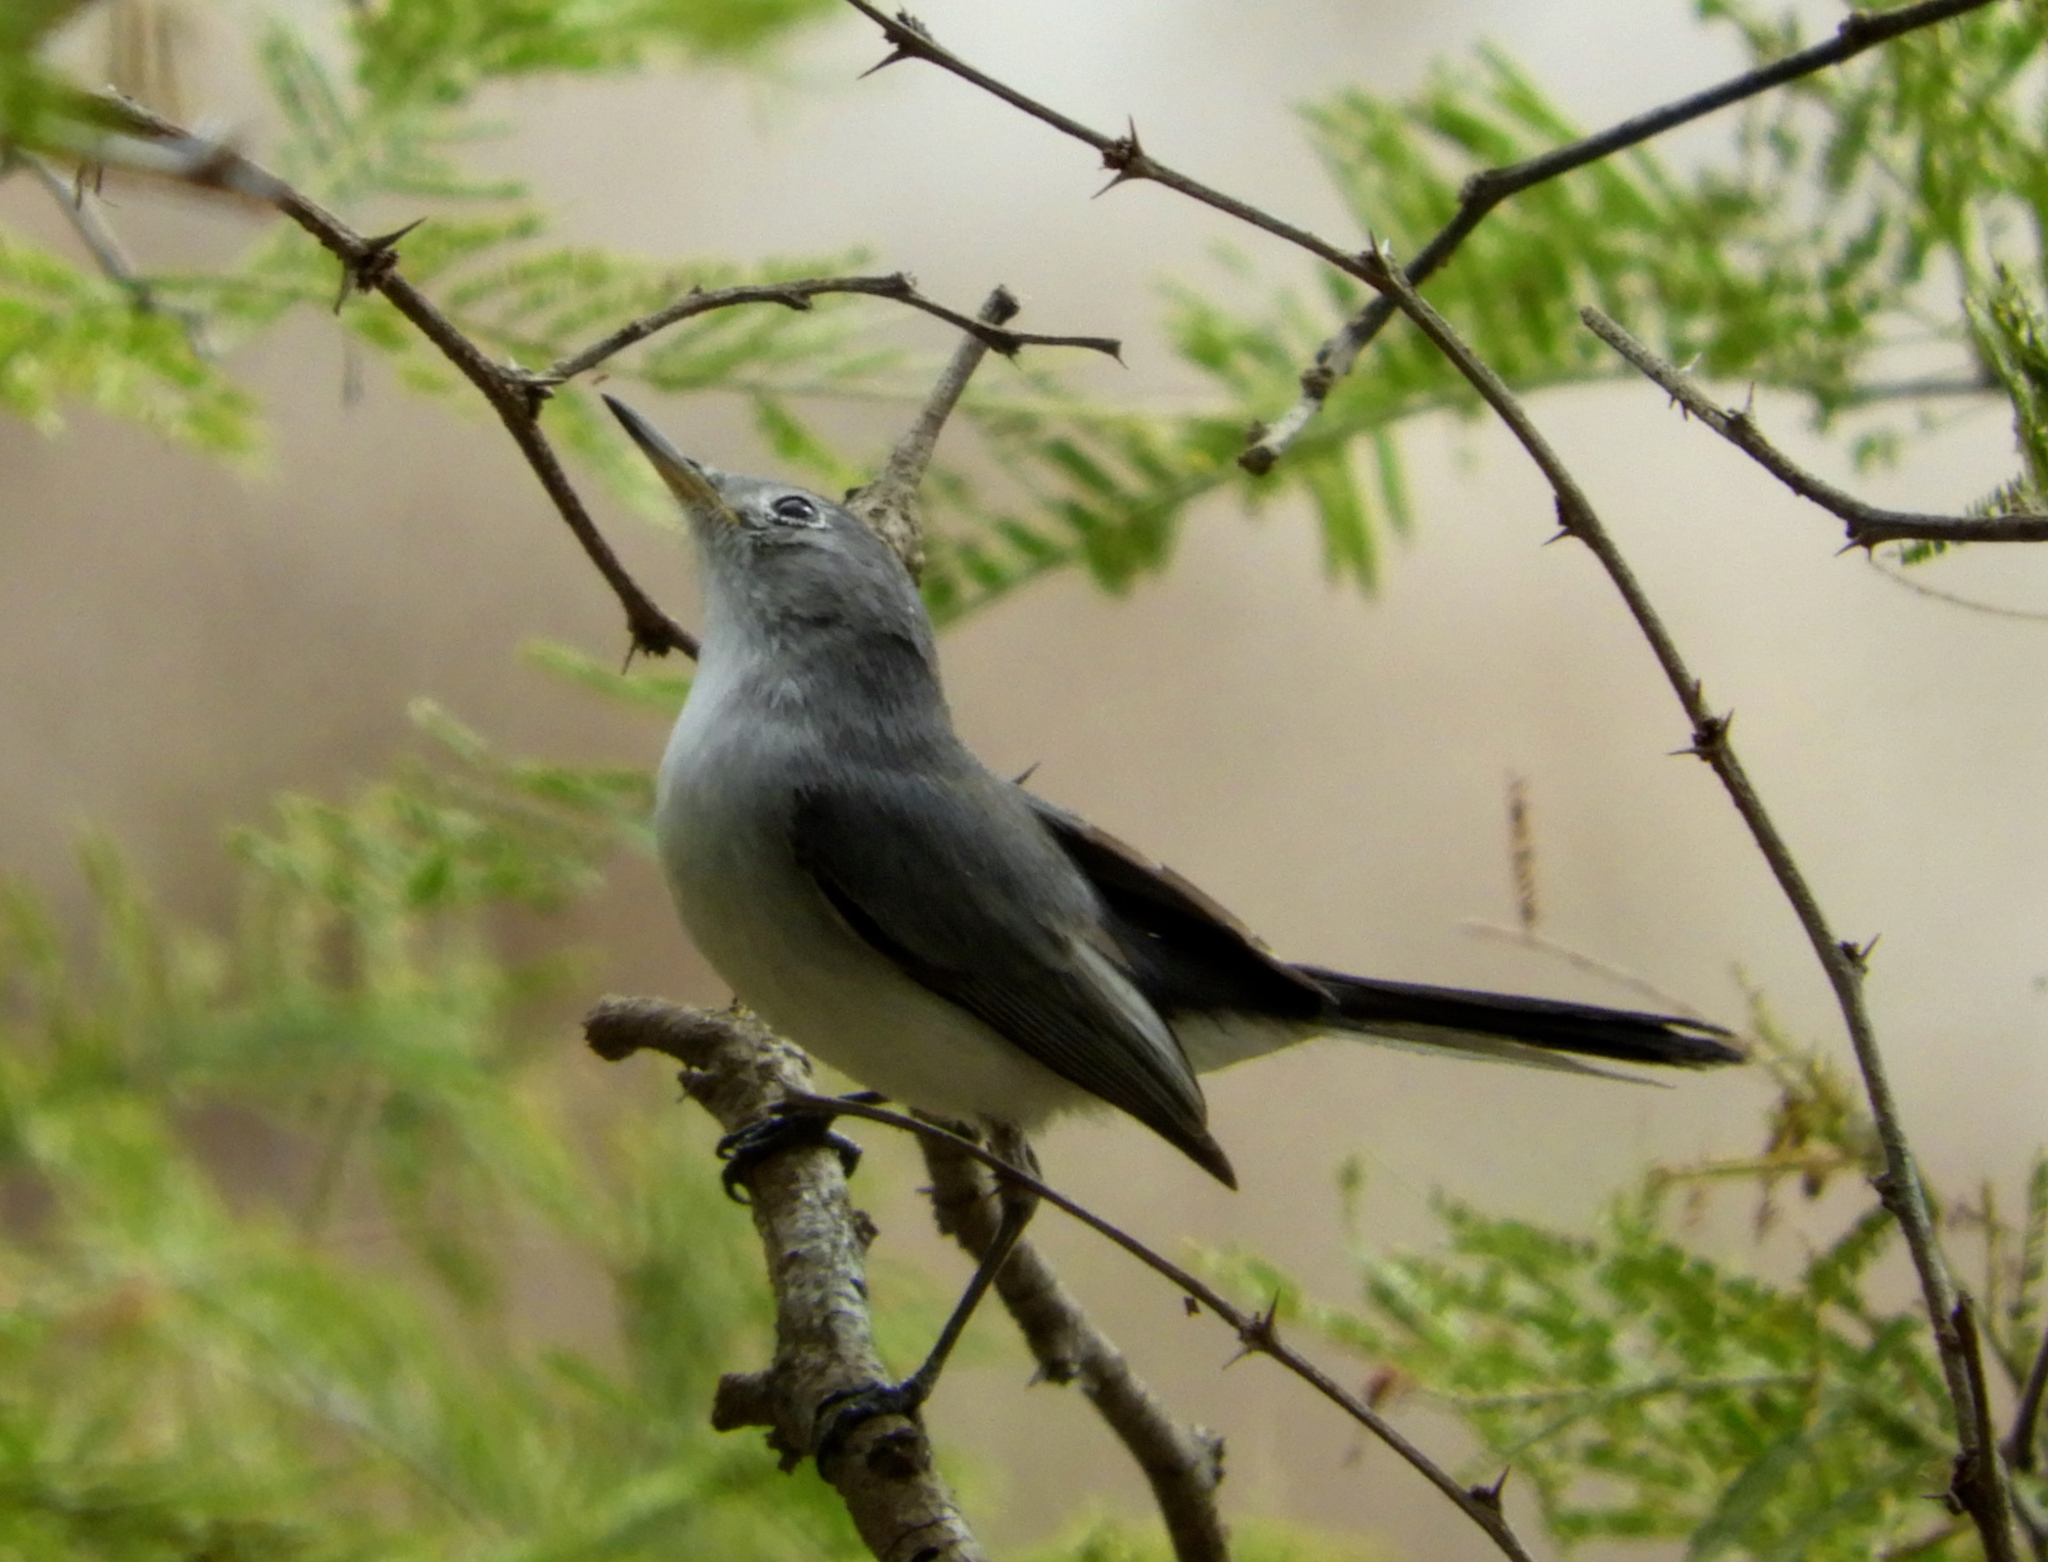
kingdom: Animalia
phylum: Chordata
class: Aves
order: Passeriformes
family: Polioptilidae
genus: Polioptila
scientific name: Polioptila caerulea
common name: Blue-gray gnatcatcher
